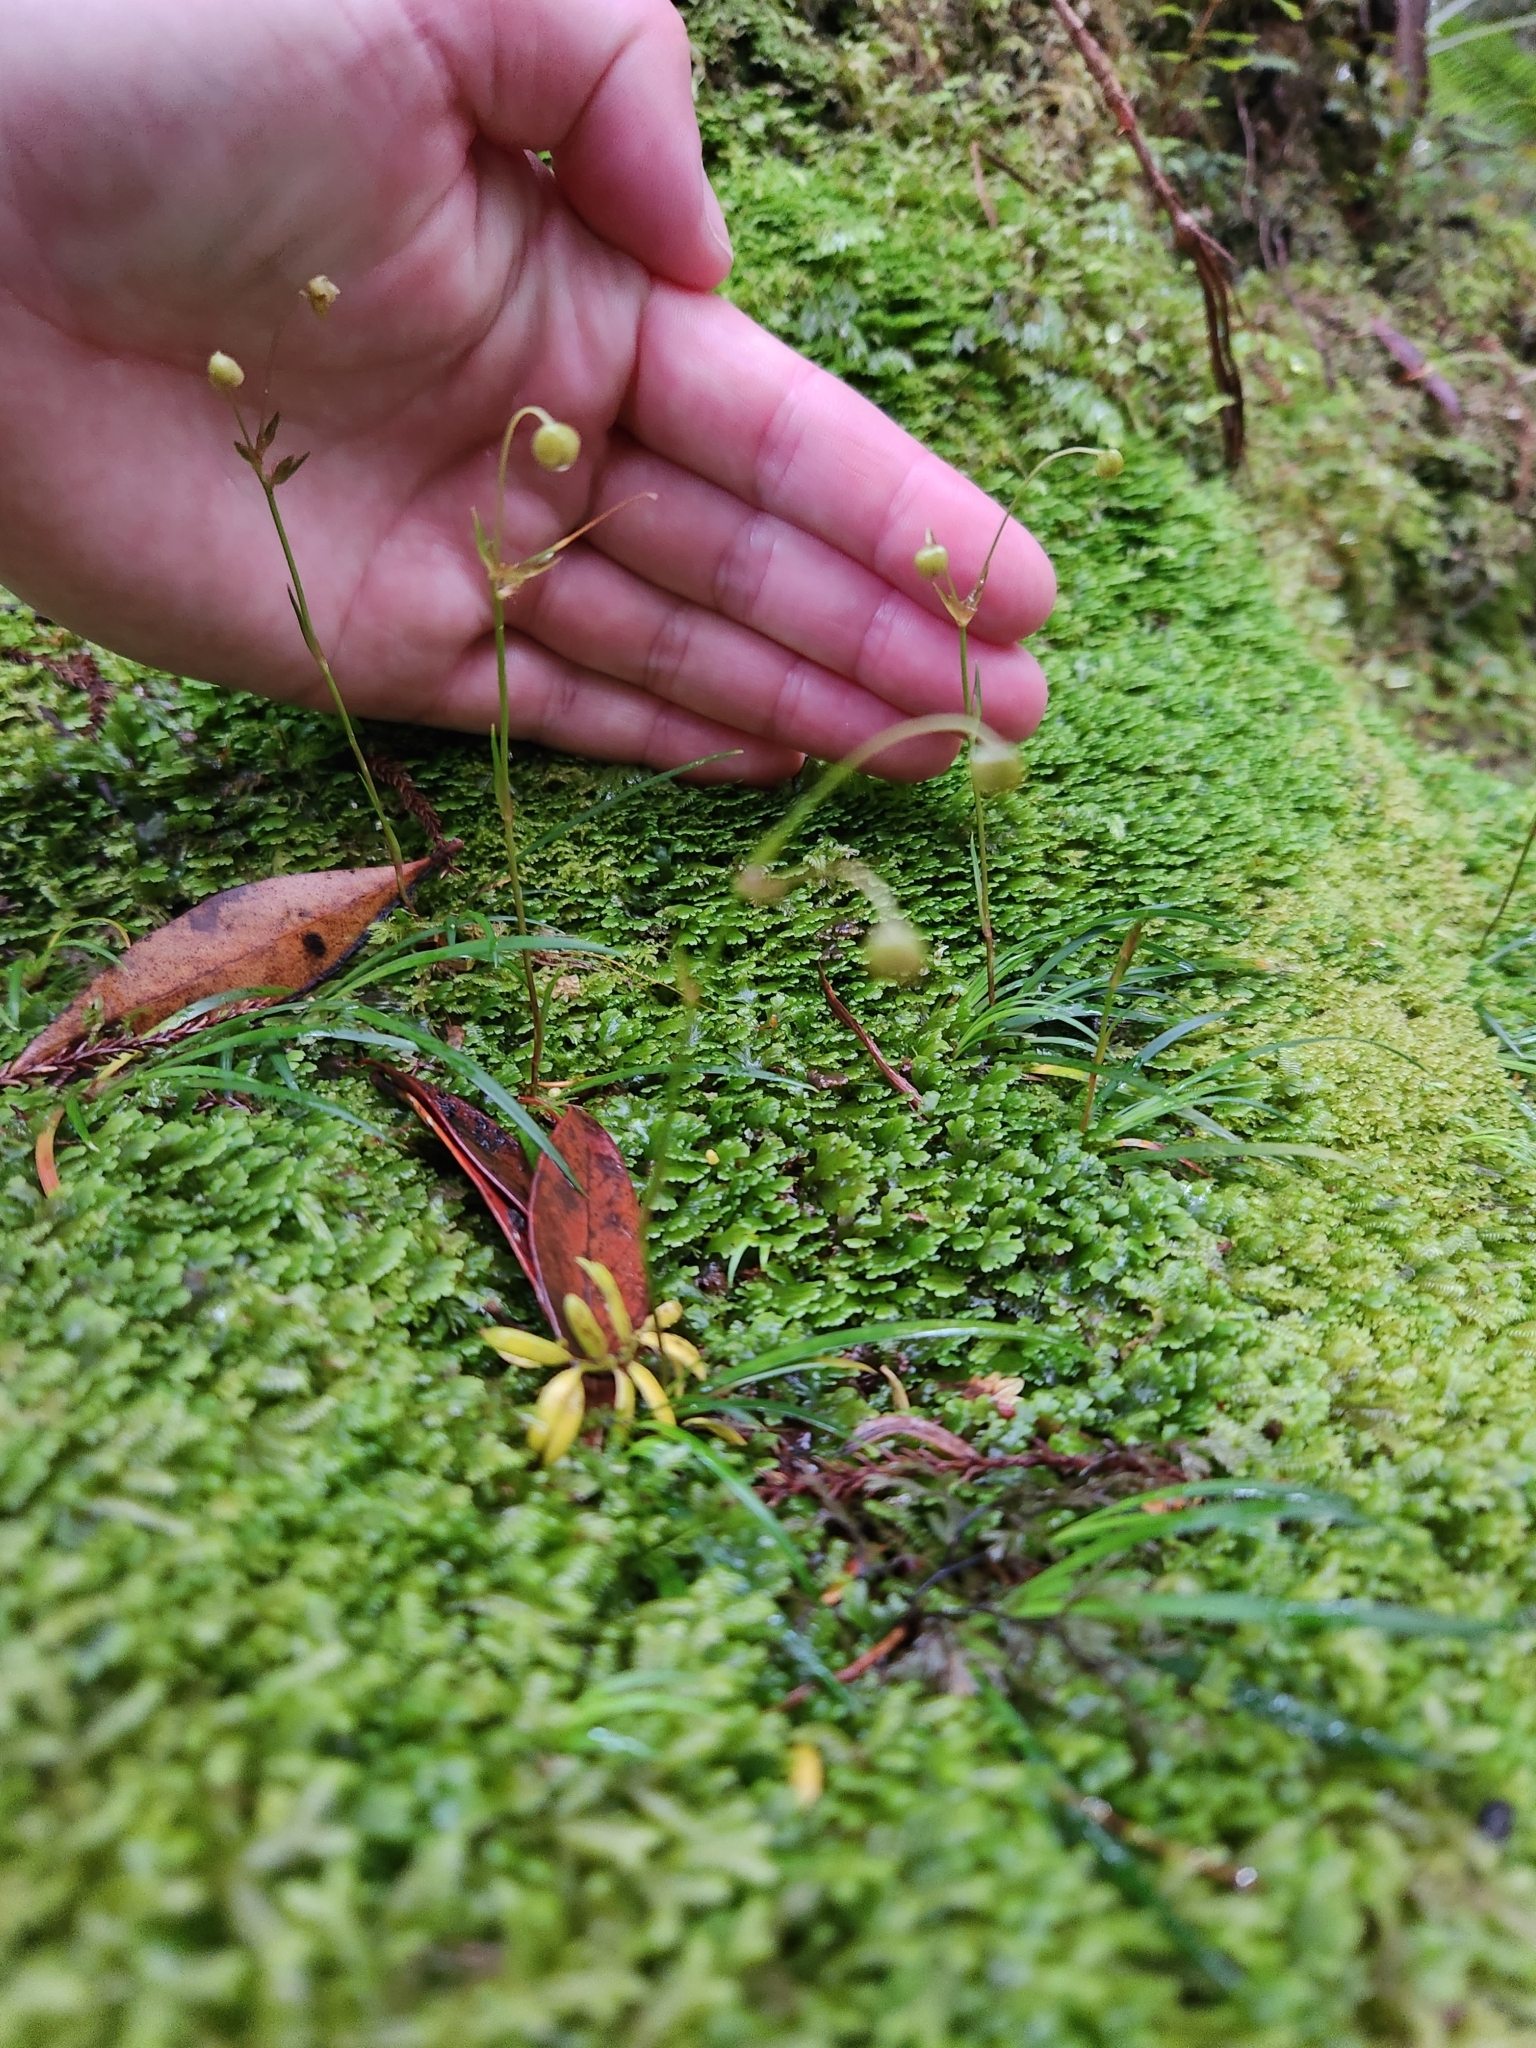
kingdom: Plantae
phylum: Tracheophyta
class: Liliopsida
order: Asparagales
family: Iridaceae
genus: Libertia
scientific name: Libertia micrantha
